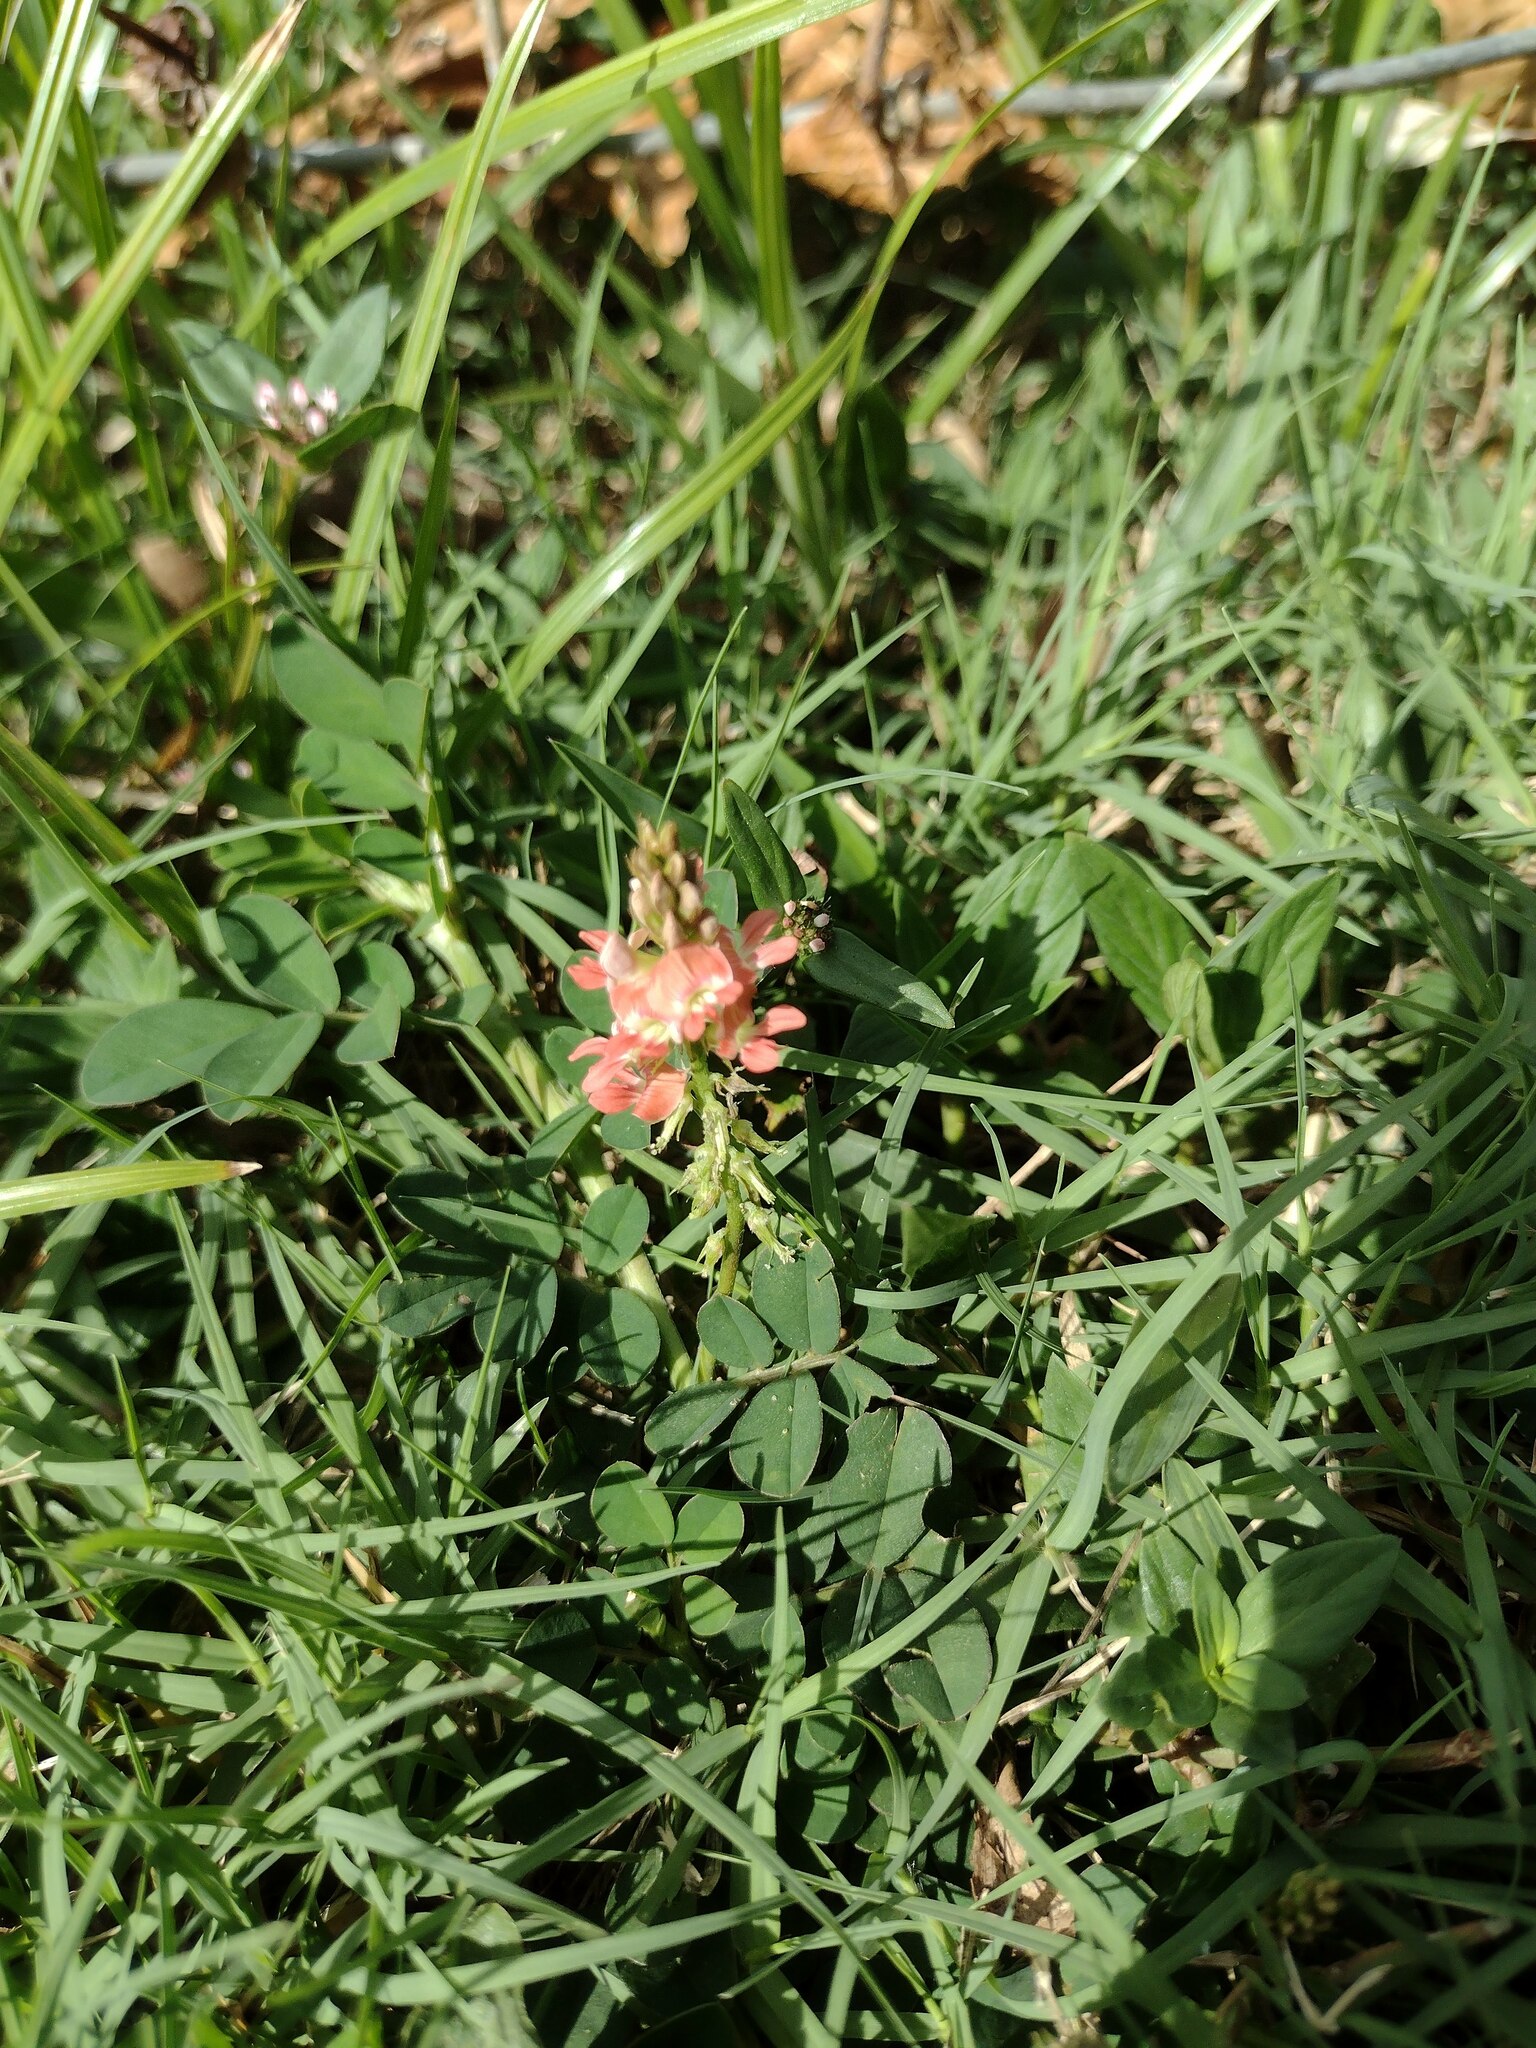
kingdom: Plantae
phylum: Tracheophyta
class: Magnoliopsida
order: Fabales
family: Fabaceae
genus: Indigofera
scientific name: Indigofera spicata
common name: Creeping indigo
